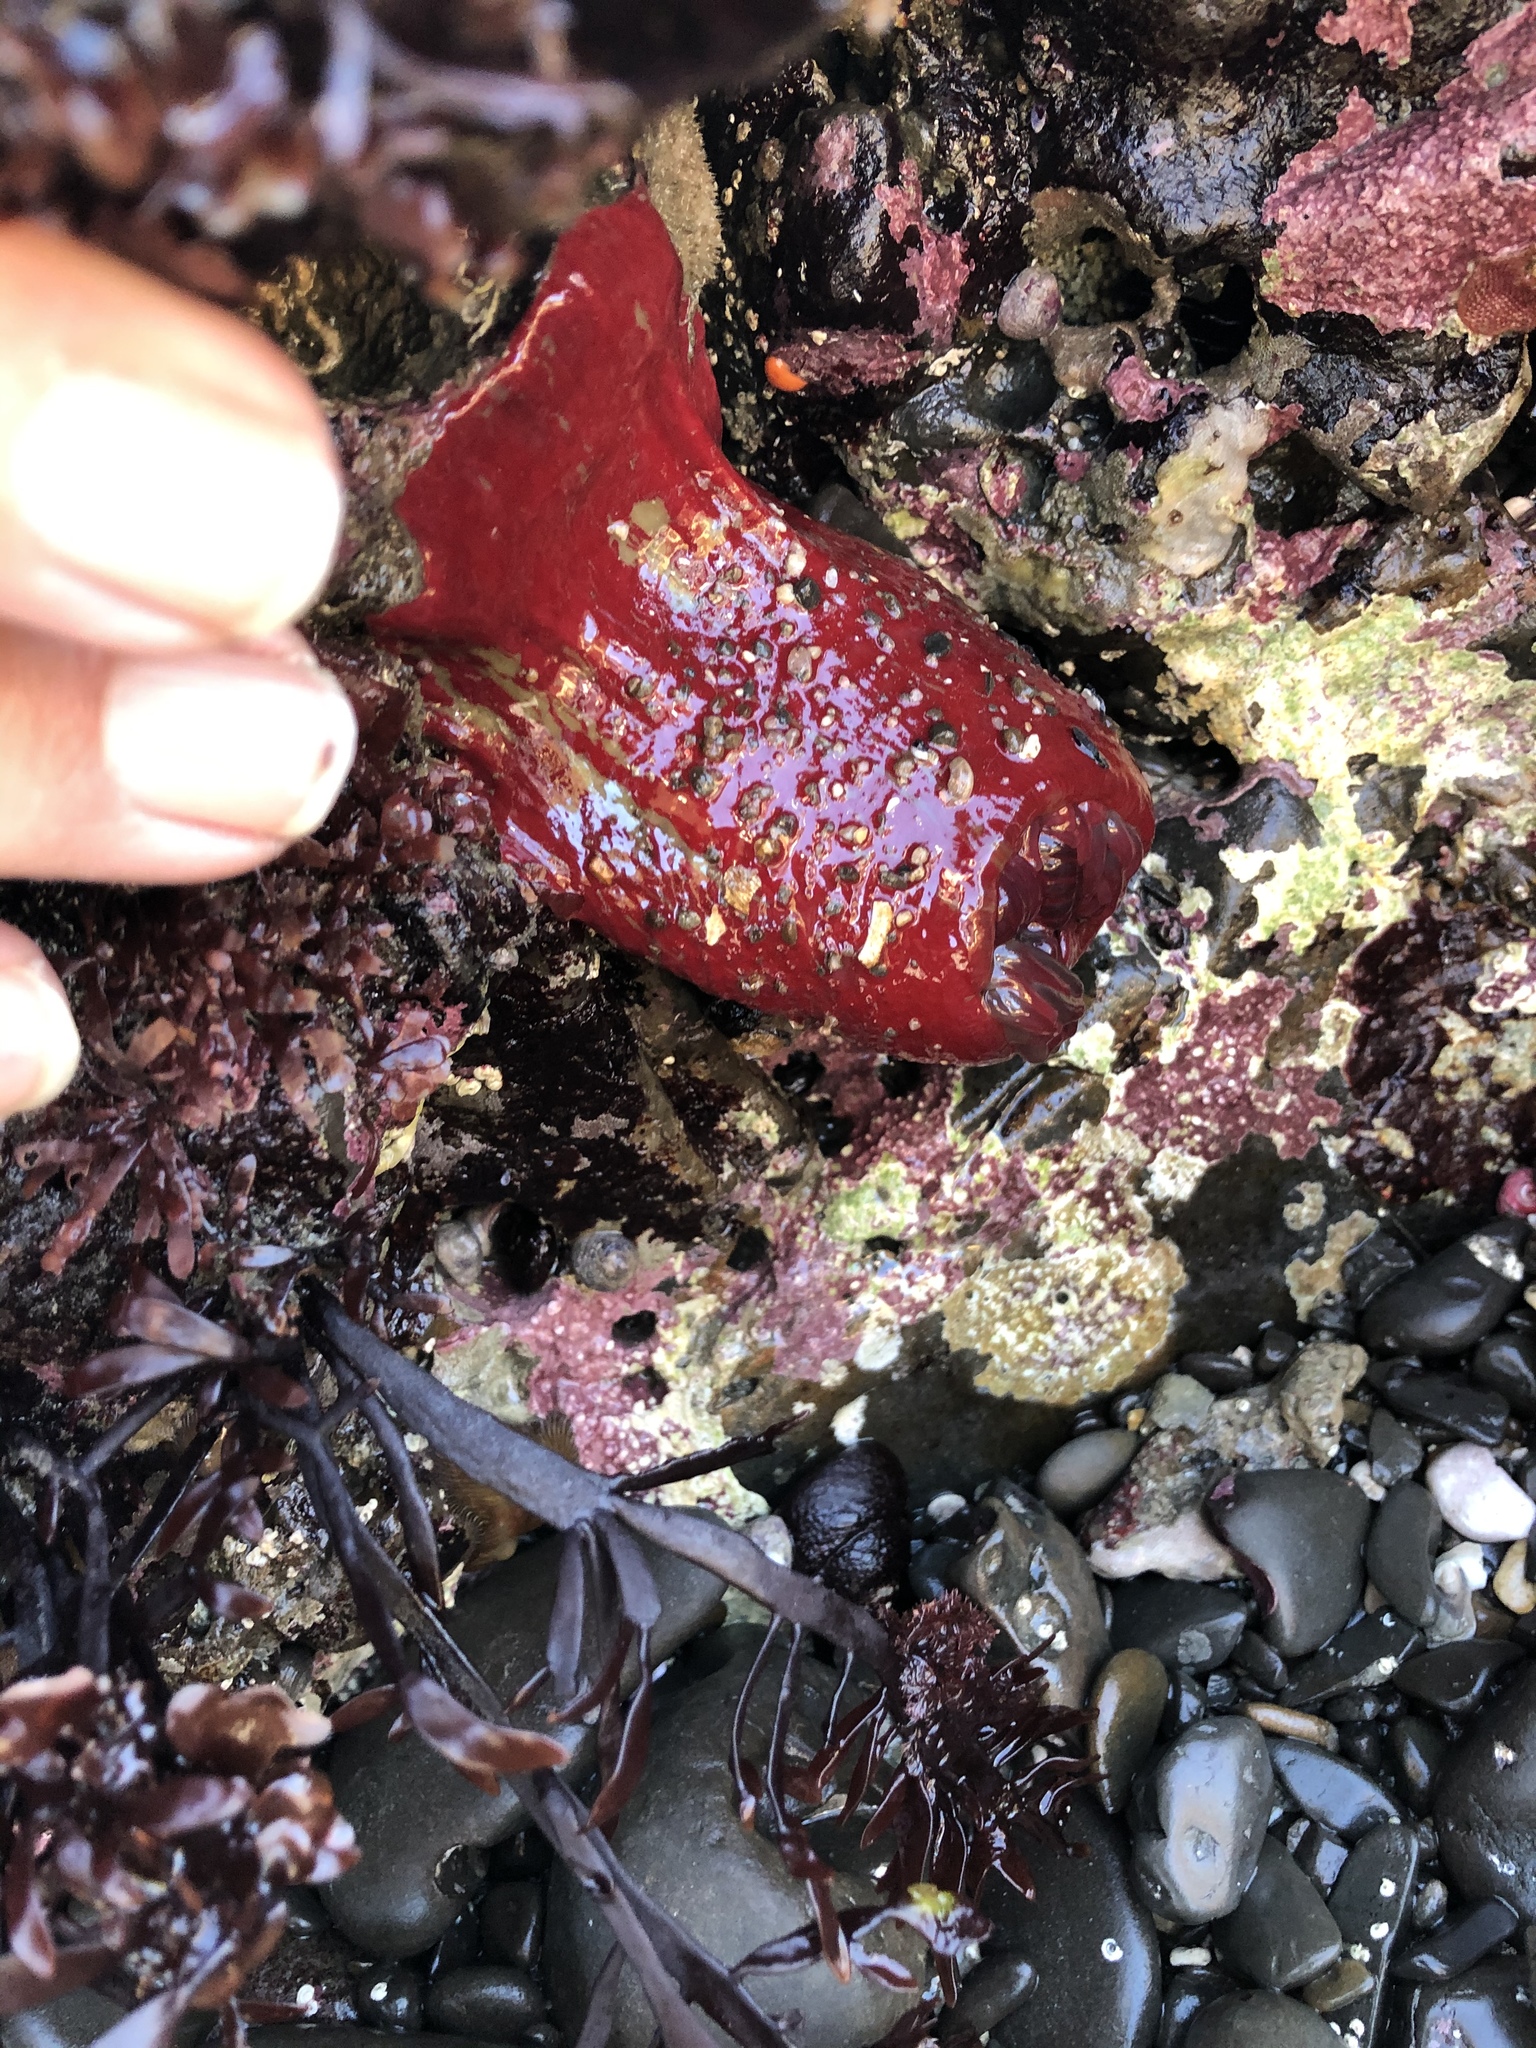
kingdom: Animalia
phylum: Cnidaria
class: Anthozoa
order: Actiniaria
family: Actiniidae
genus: Urticina
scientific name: Urticina grebelnyi
